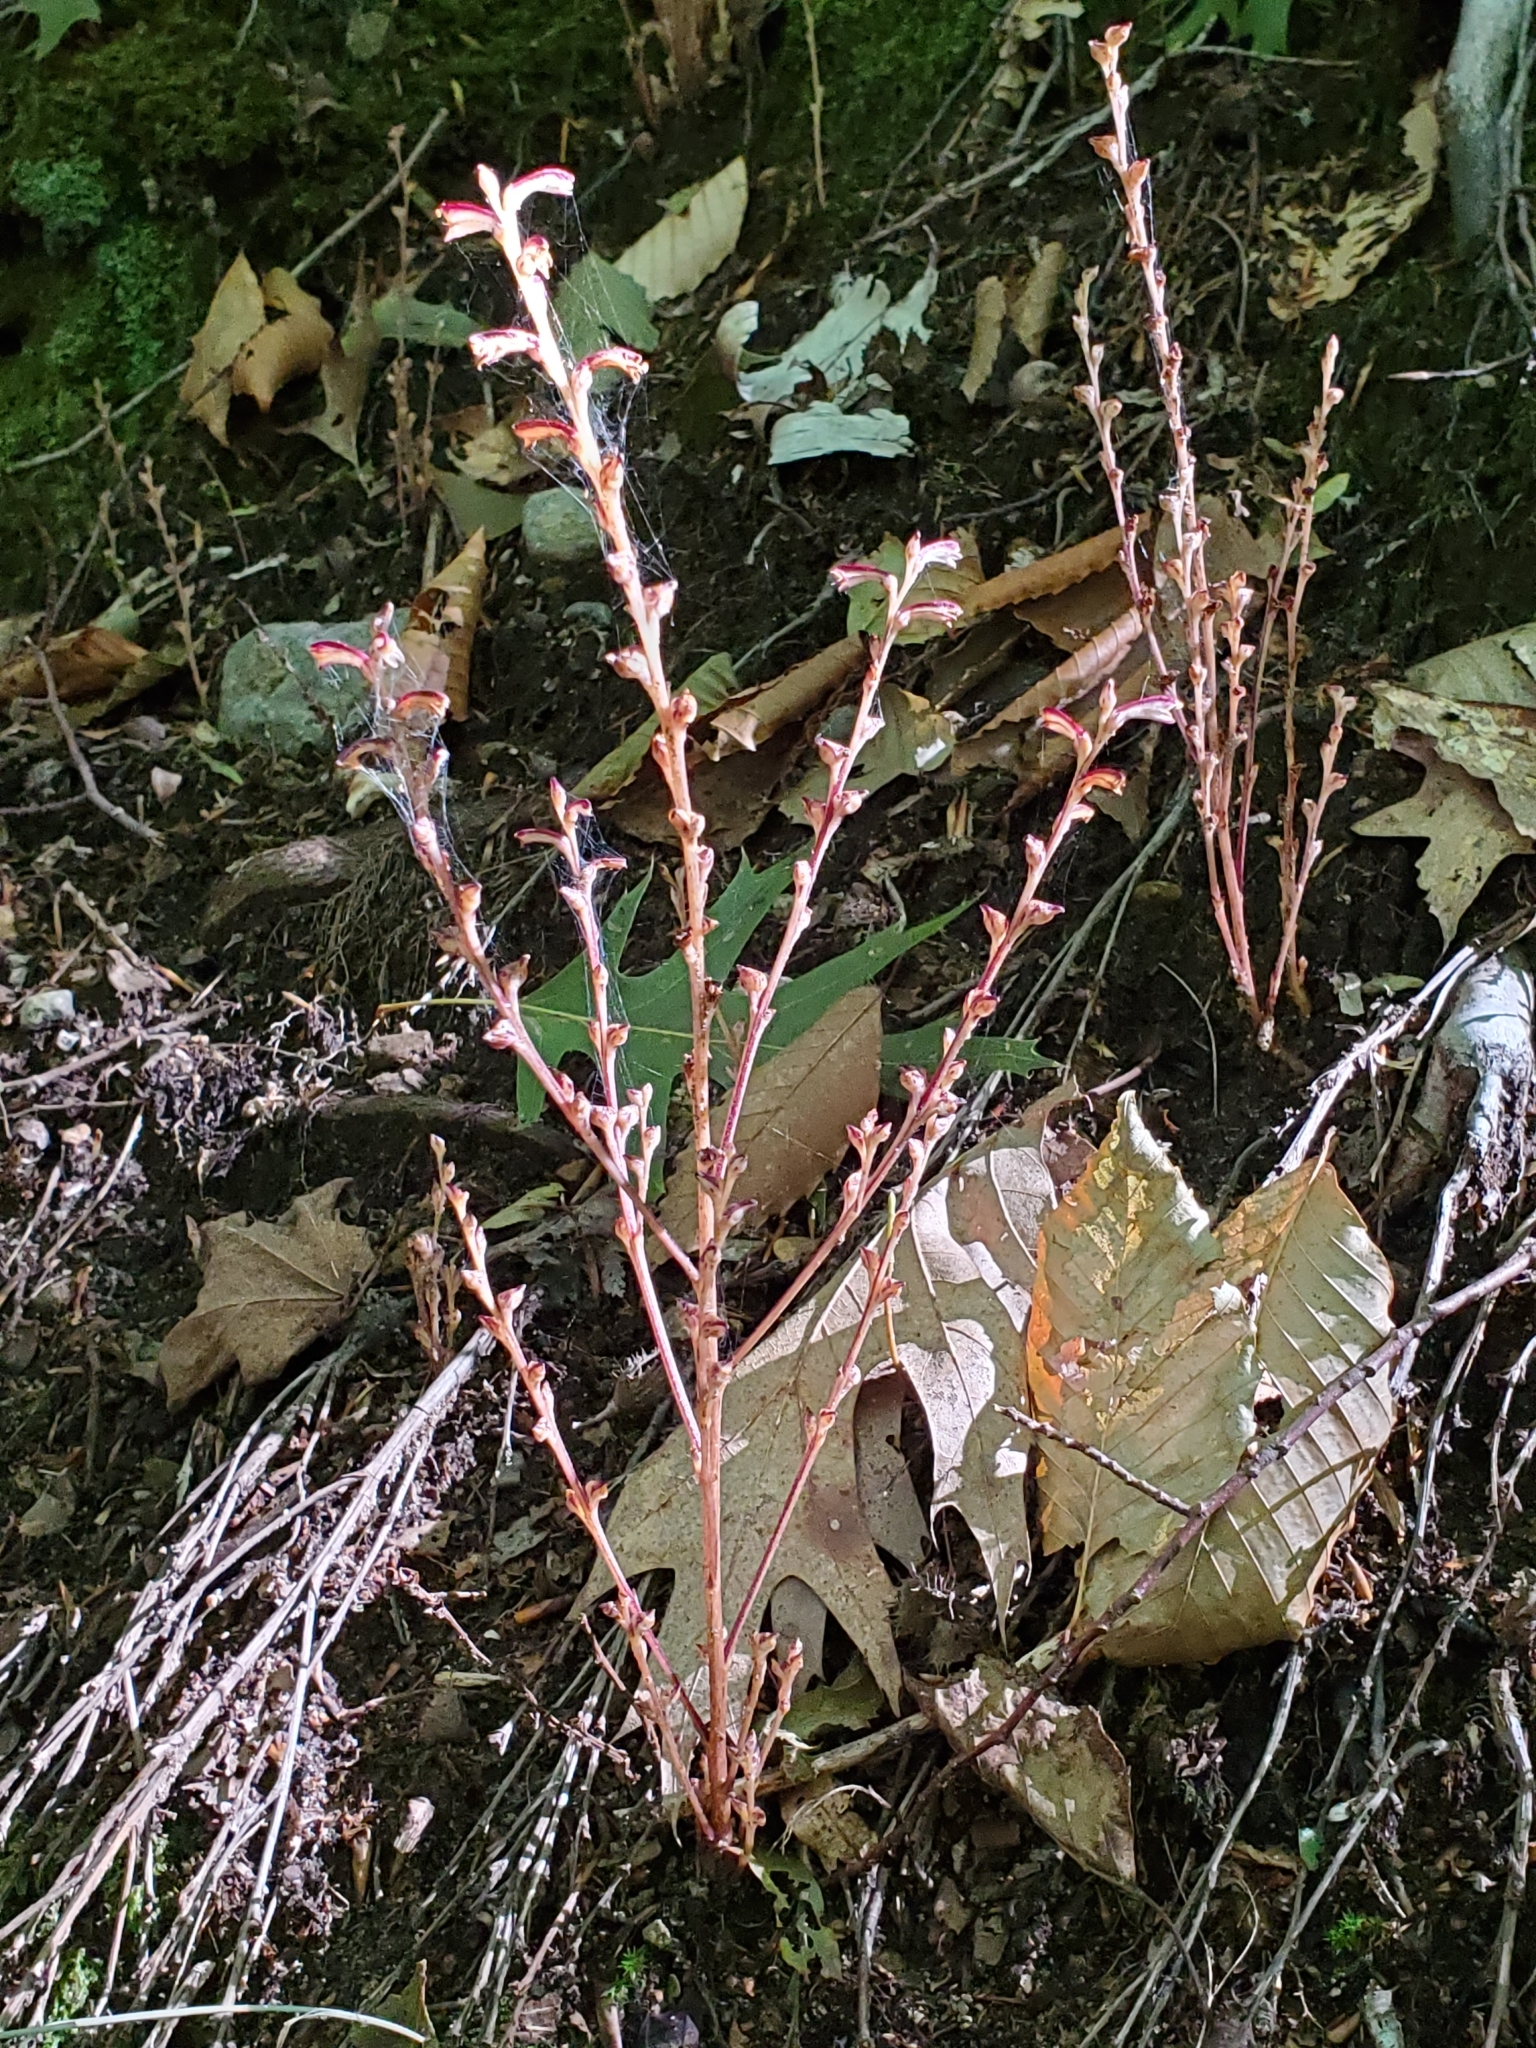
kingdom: Plantae
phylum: Tracheophyta
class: Magnoliopsida
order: Lamiales
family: Orobanchaceae
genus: Epifagus
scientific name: Epifagus virginiana
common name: Beechdrops
